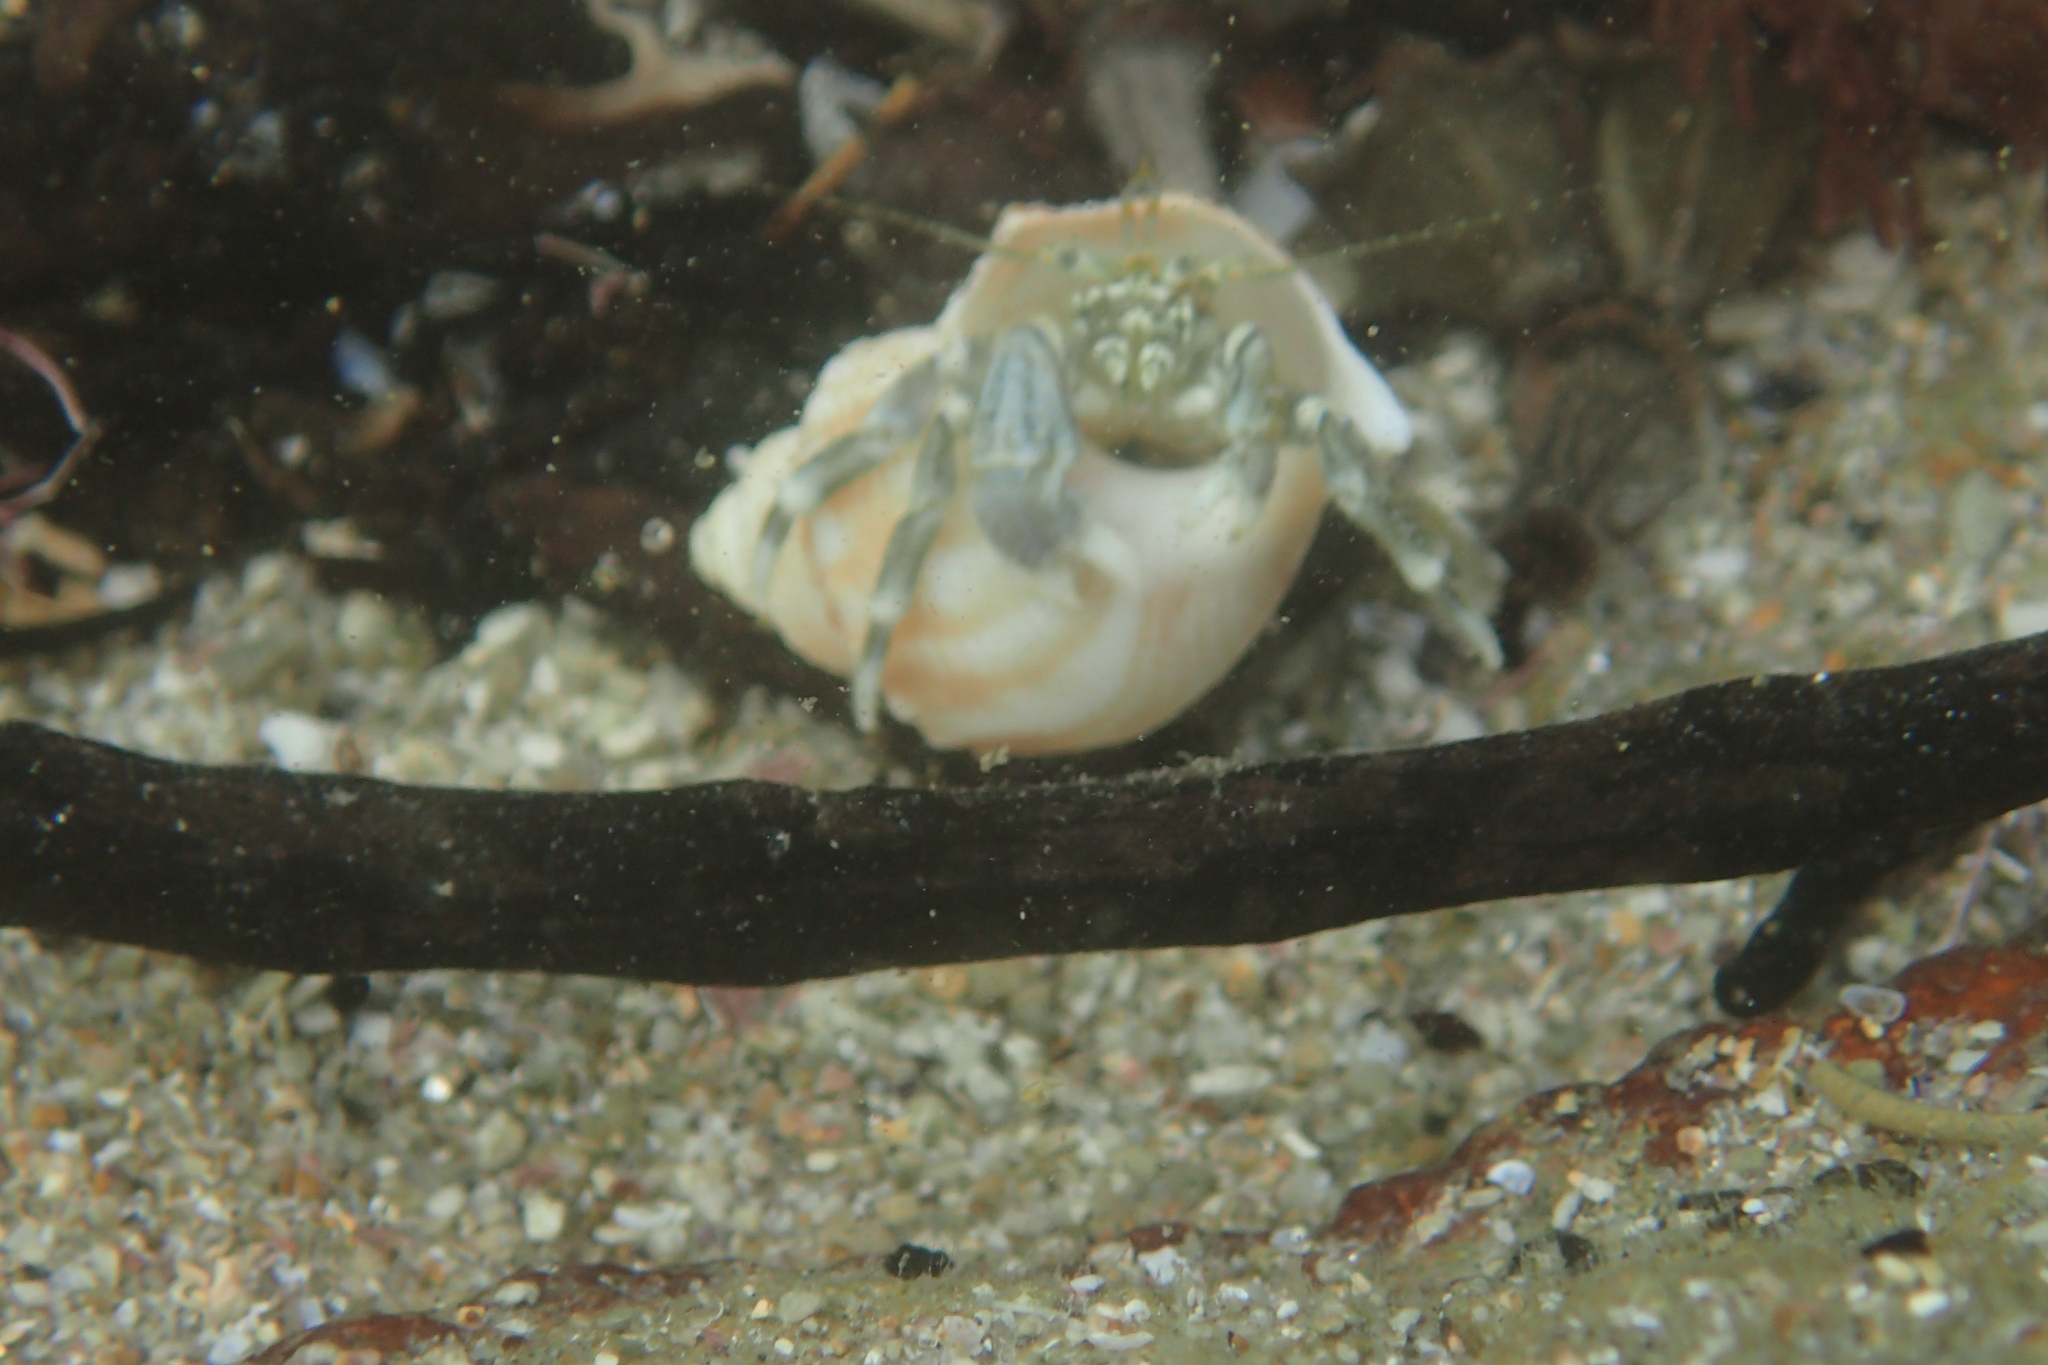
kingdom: Animalia
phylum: Arthropoda
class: Malacostraca
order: Decapoda
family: Paguridae
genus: Pagurus
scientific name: Pagurus novizealandiae
